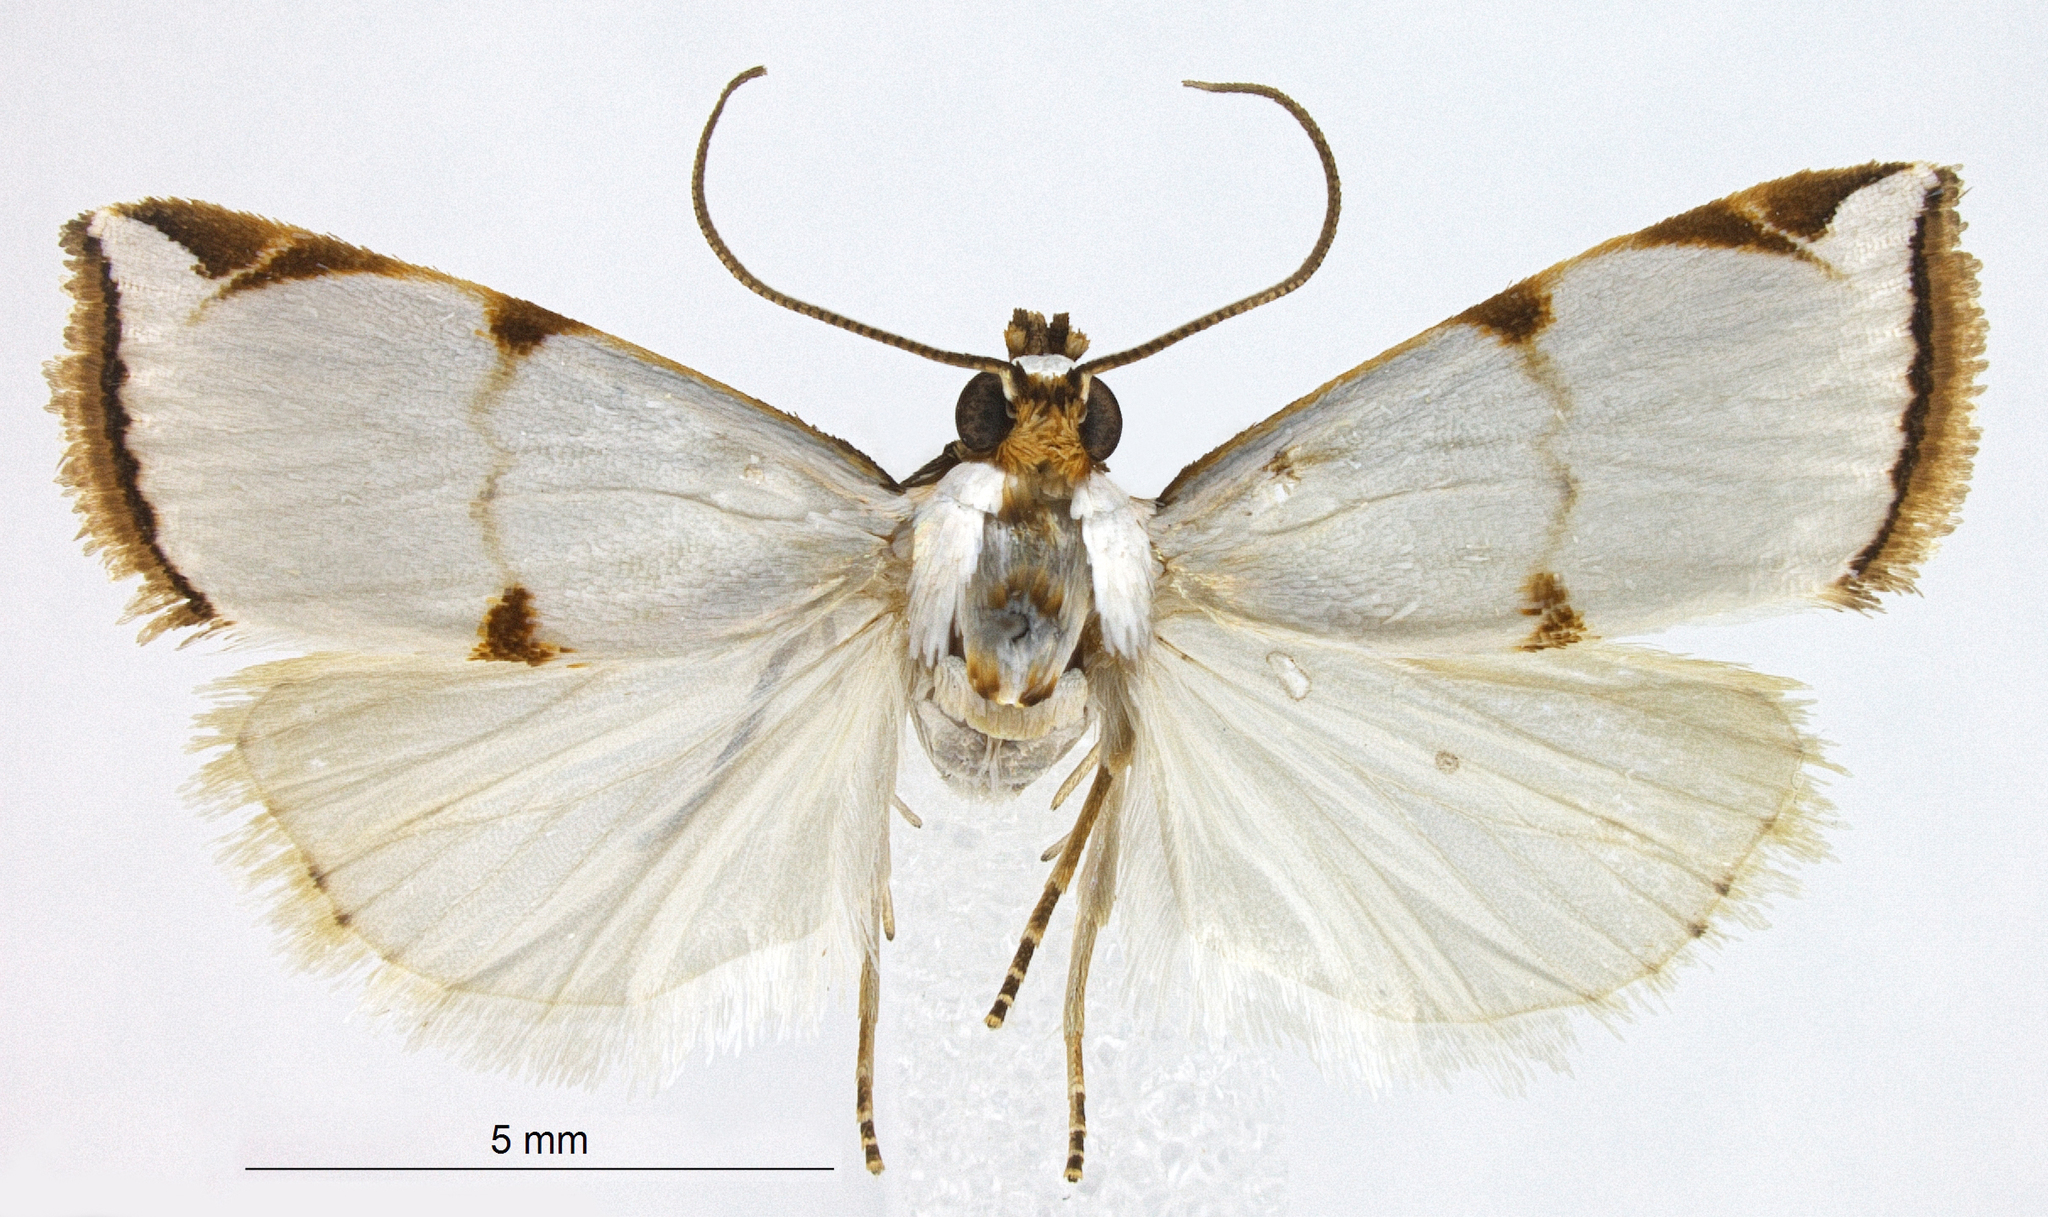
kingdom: Animalia
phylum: Arthropoda
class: Insecta
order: Lepidoptera
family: Crambidae
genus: Argyria
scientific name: Argyria centrifugens
